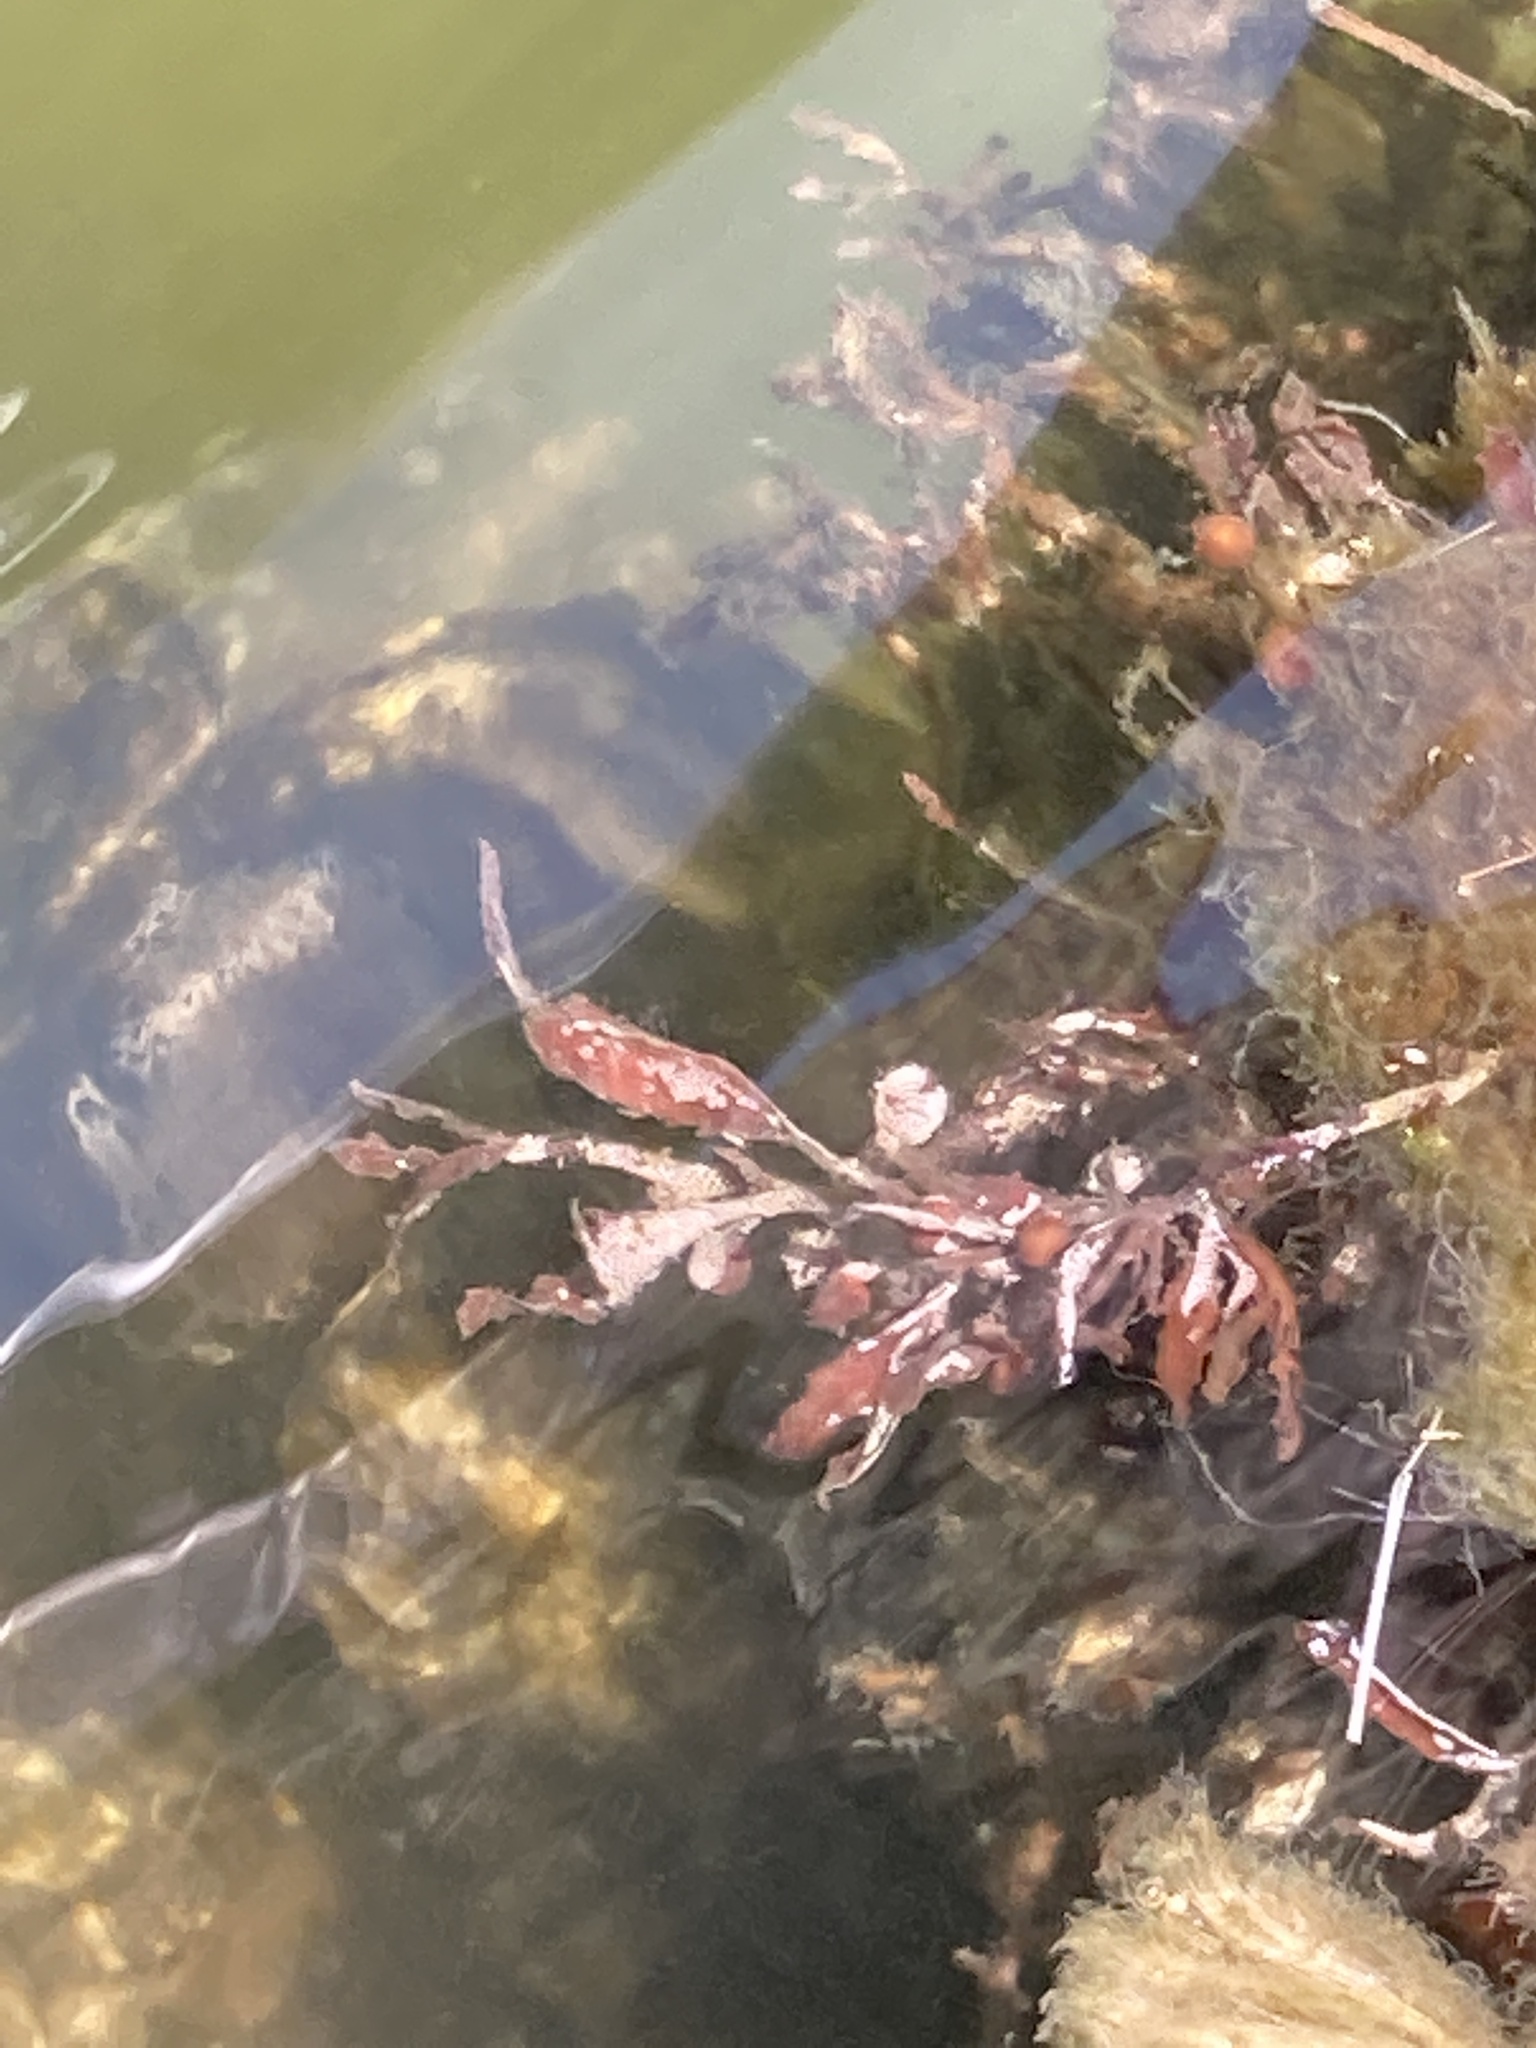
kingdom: Chromista
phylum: Ochrophyta
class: Phaeophyceae
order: Fucales
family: Sargassaceae
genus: Sargassum
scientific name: Sargassum fluitans
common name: Sargassum seaweed
